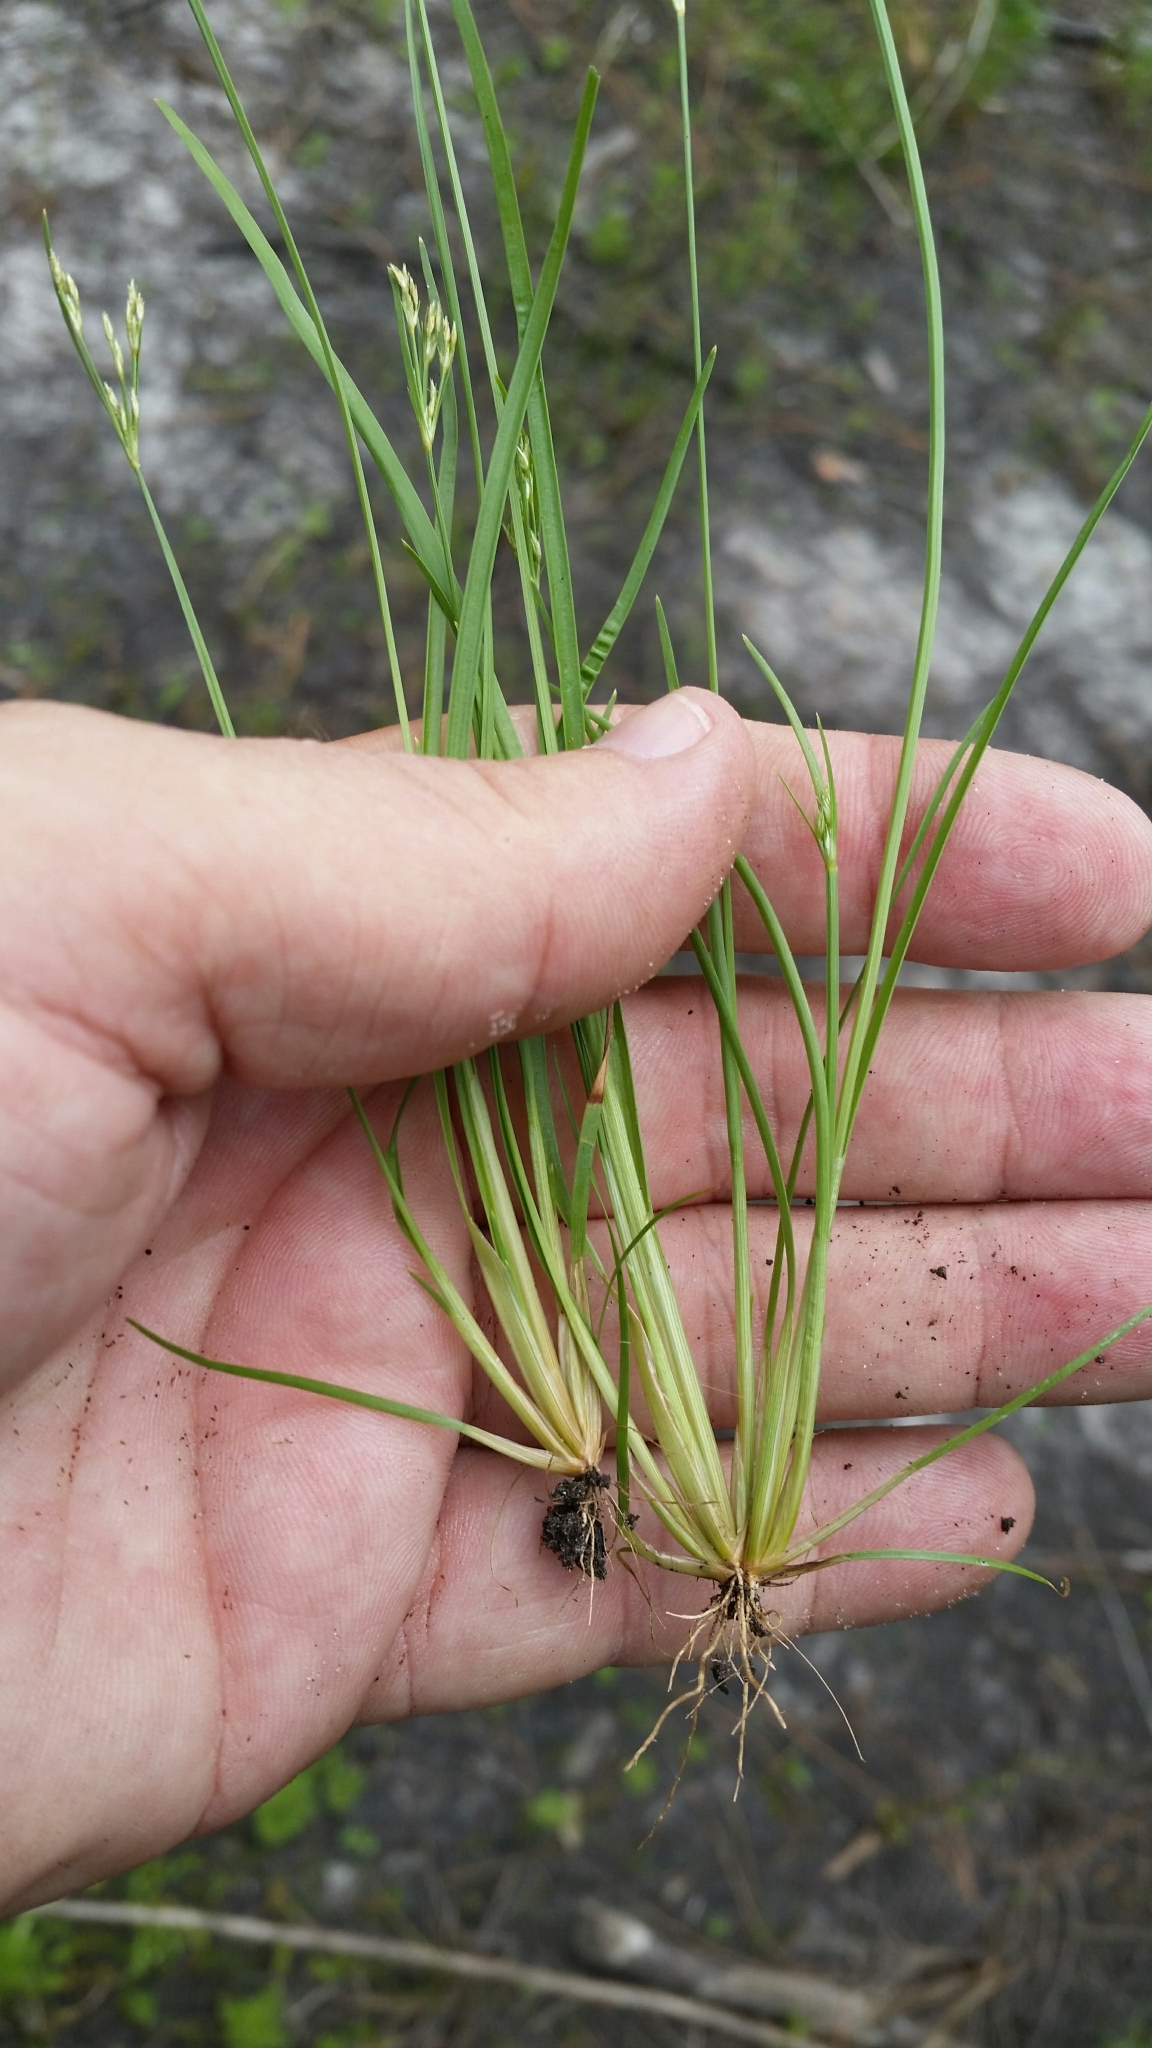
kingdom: Plantae
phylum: Tracheophyta
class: Liliopsida
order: Poales
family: Cyperaceae
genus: Fimbristylis
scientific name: Fimbristylis autumnalis
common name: Slender fimbristylis
